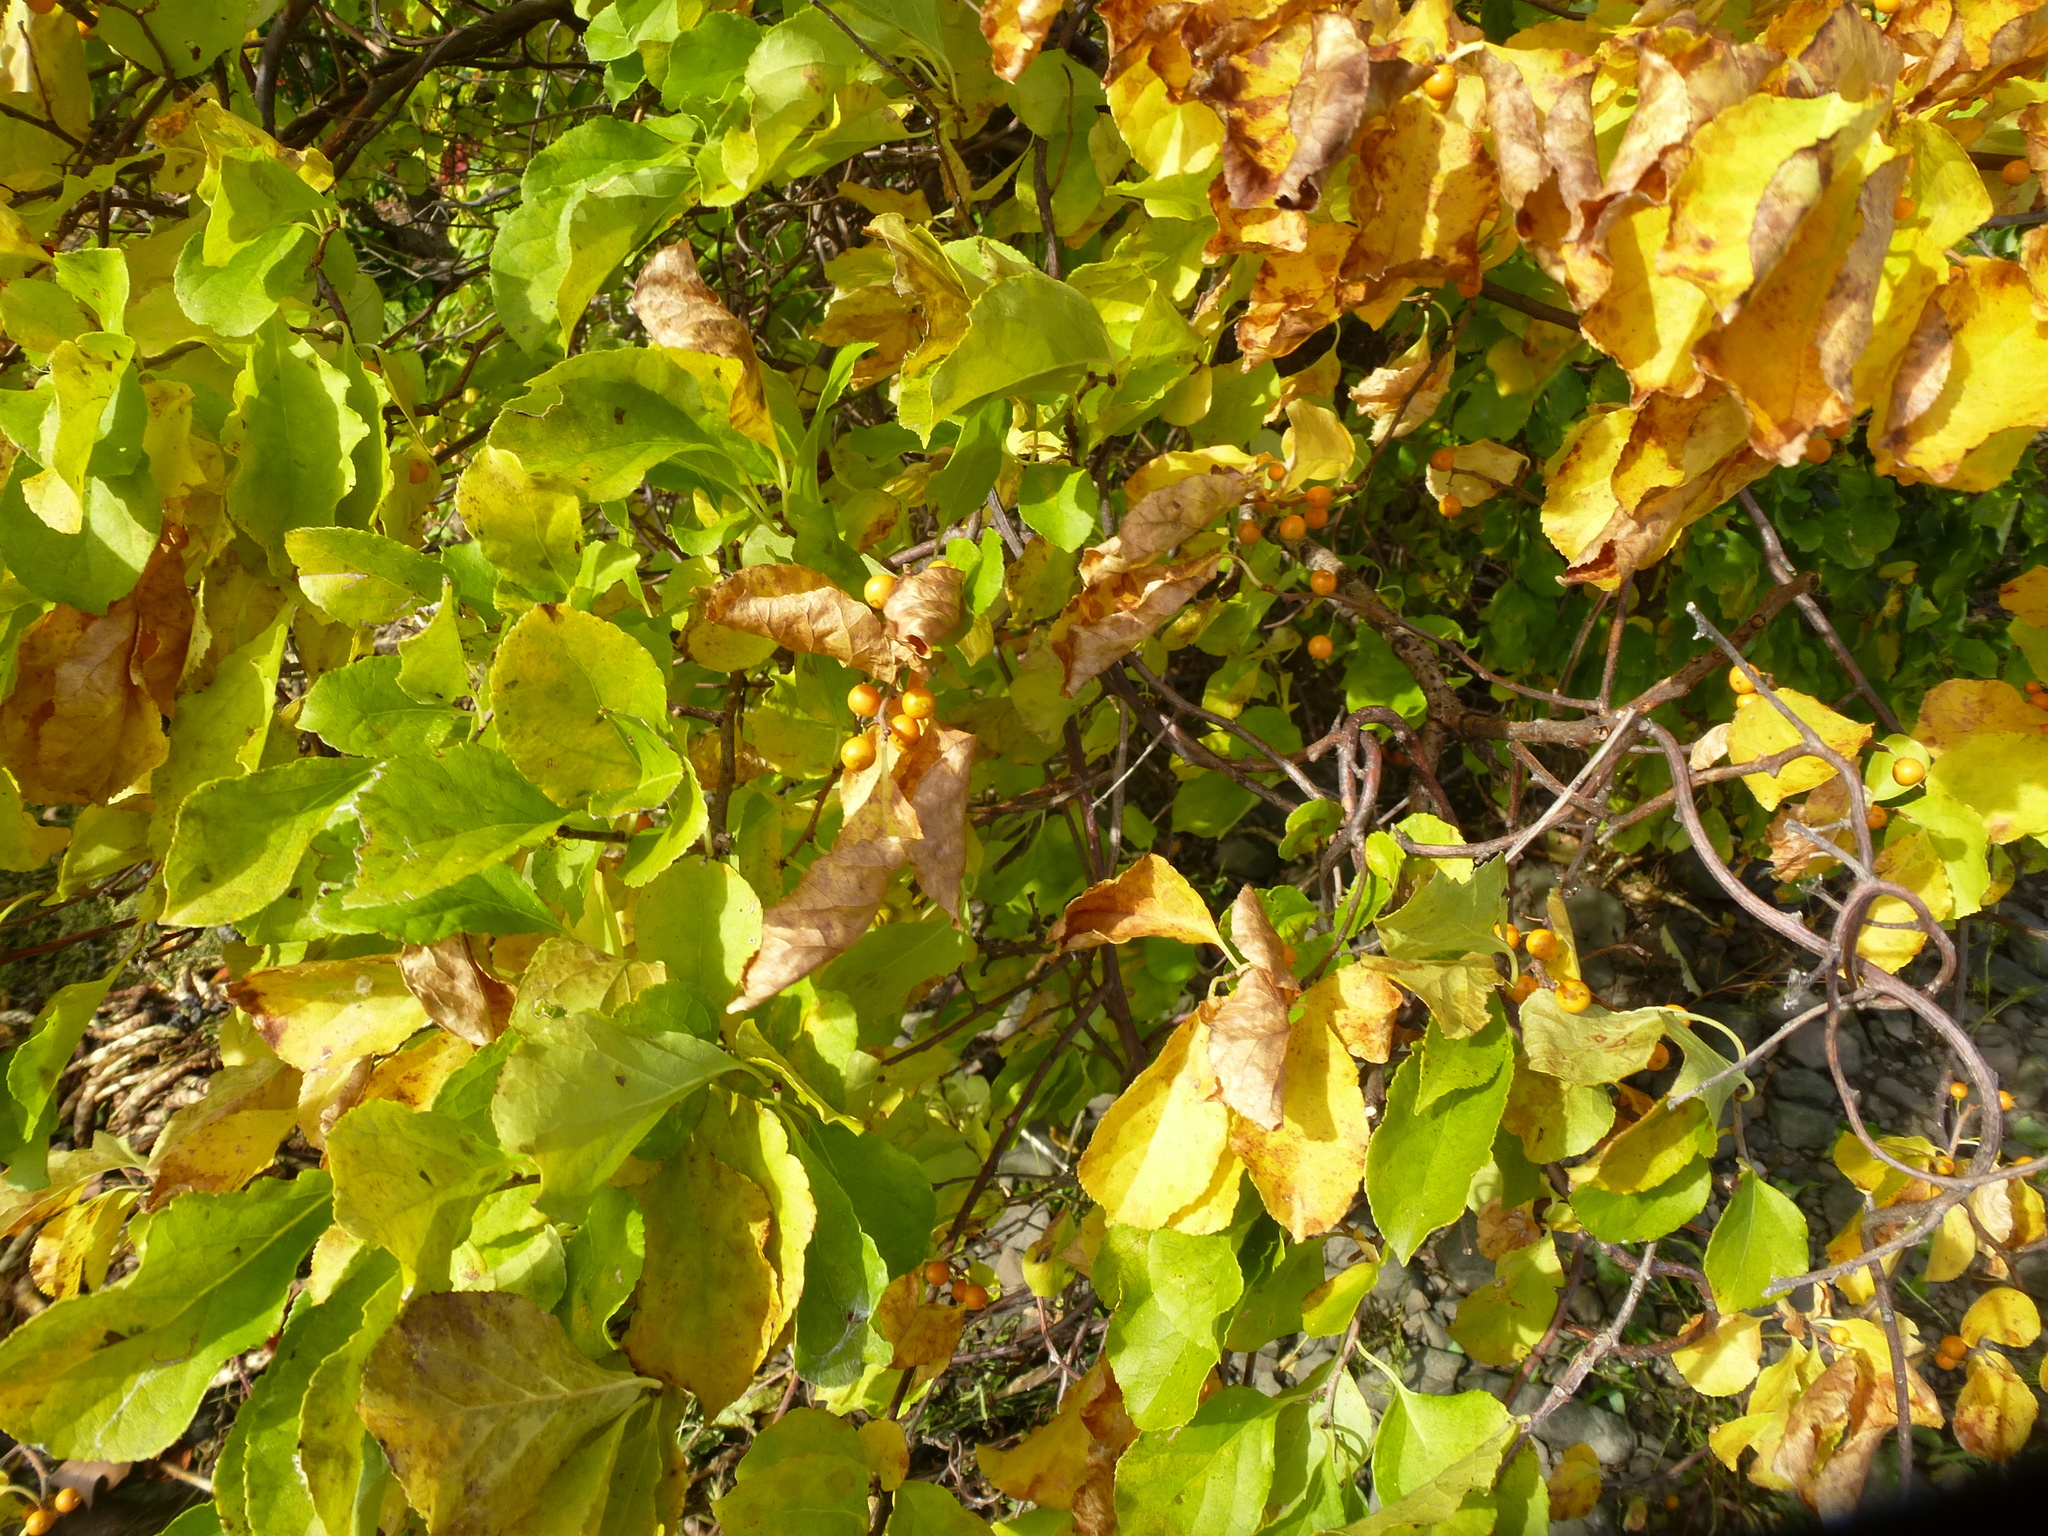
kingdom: Plantae
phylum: Tracheophyta
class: Magnoliopsida
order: Celastrales
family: Celastraceae
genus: Celastrus
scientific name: Celastrus orbiculatus
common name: Oriental bittersweet
